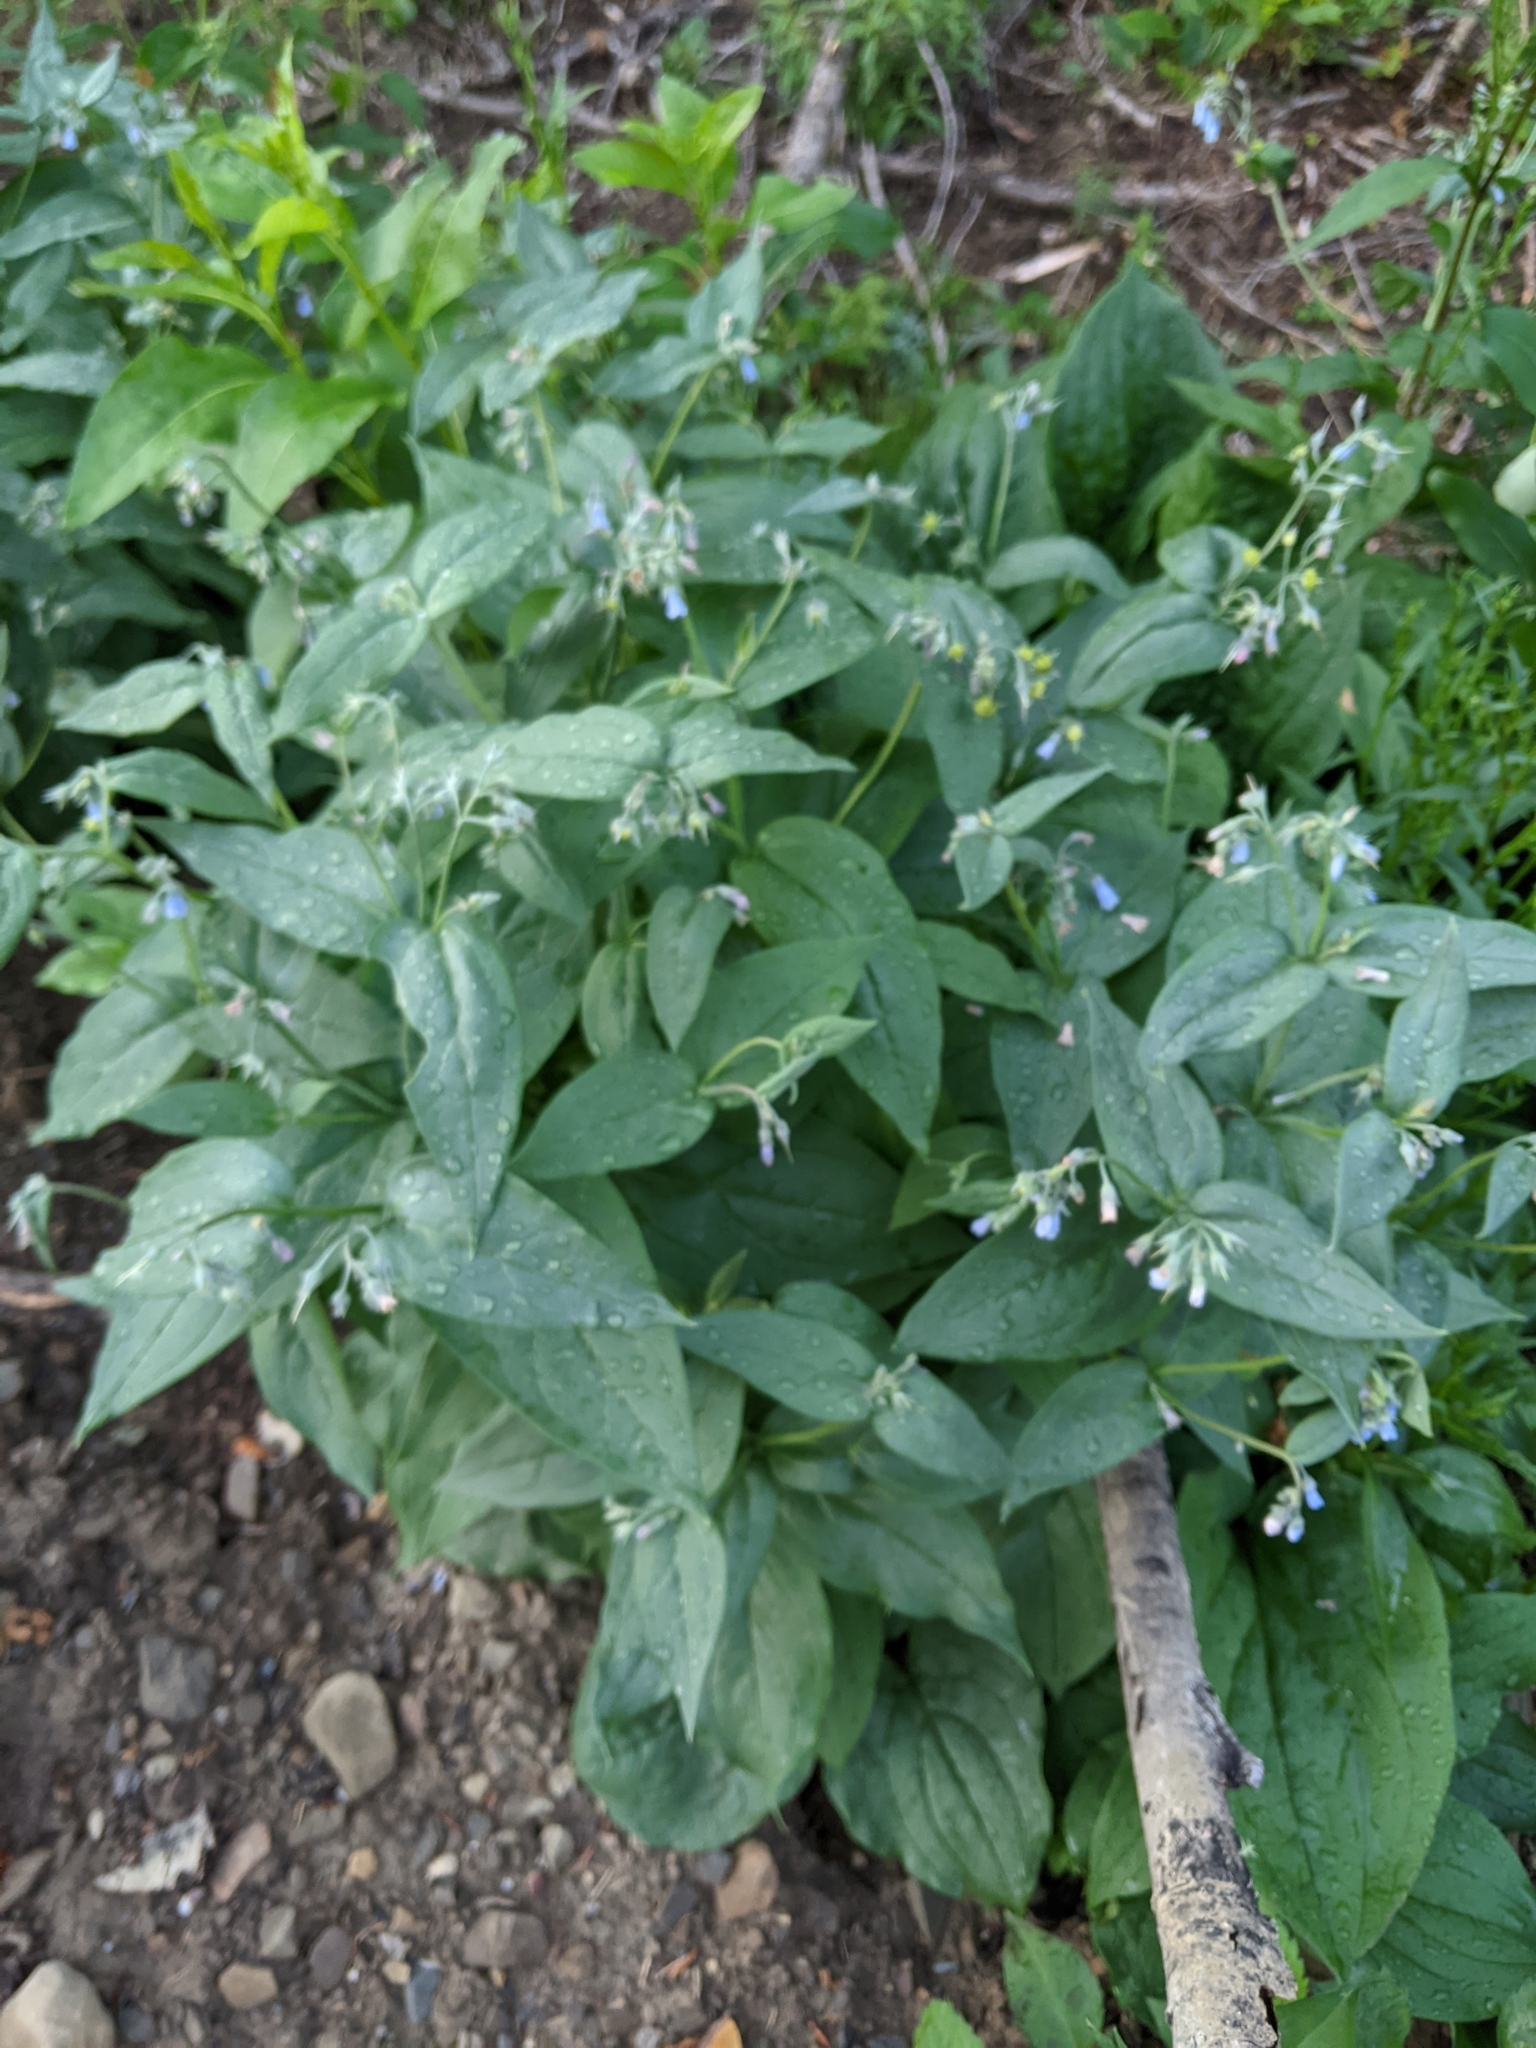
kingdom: Plantae
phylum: Tracheophyta
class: Magnoliopsida
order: Boraginales
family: Boraginaceae
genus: Mertensia
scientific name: Mertensia paniculata
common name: Panicled bluebells
